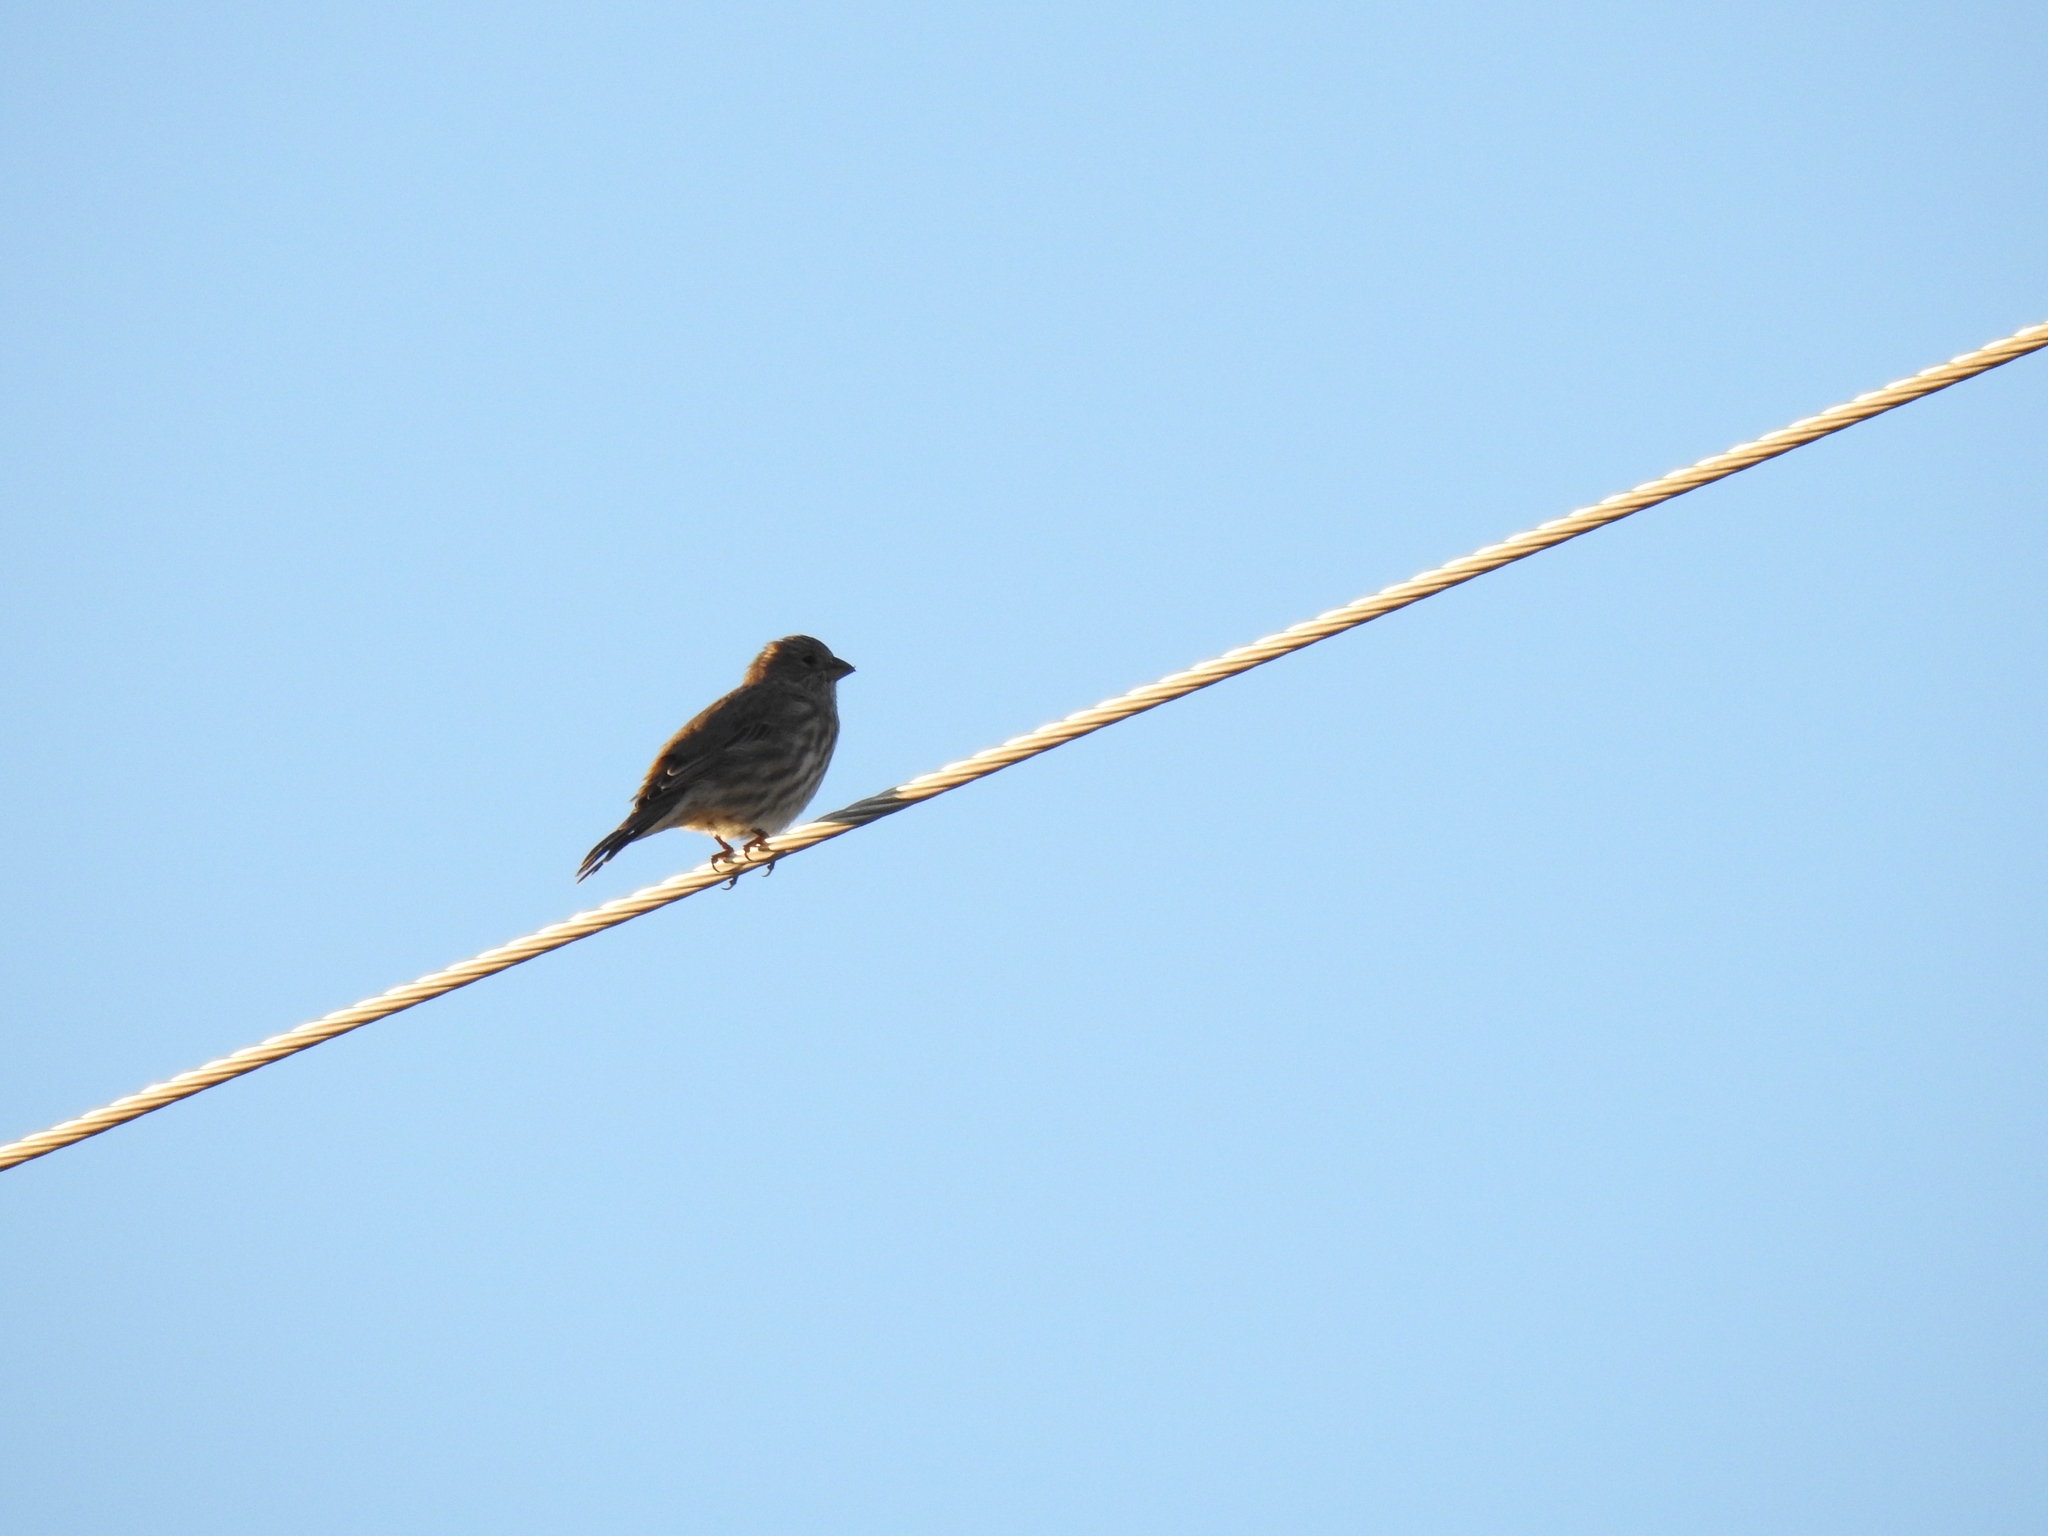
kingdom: Animalia
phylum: Chordata
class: Aves
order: Passeriformes
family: Fringillidae
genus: Haemorhous
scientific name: Haemorhous mexicanus
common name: House finch
